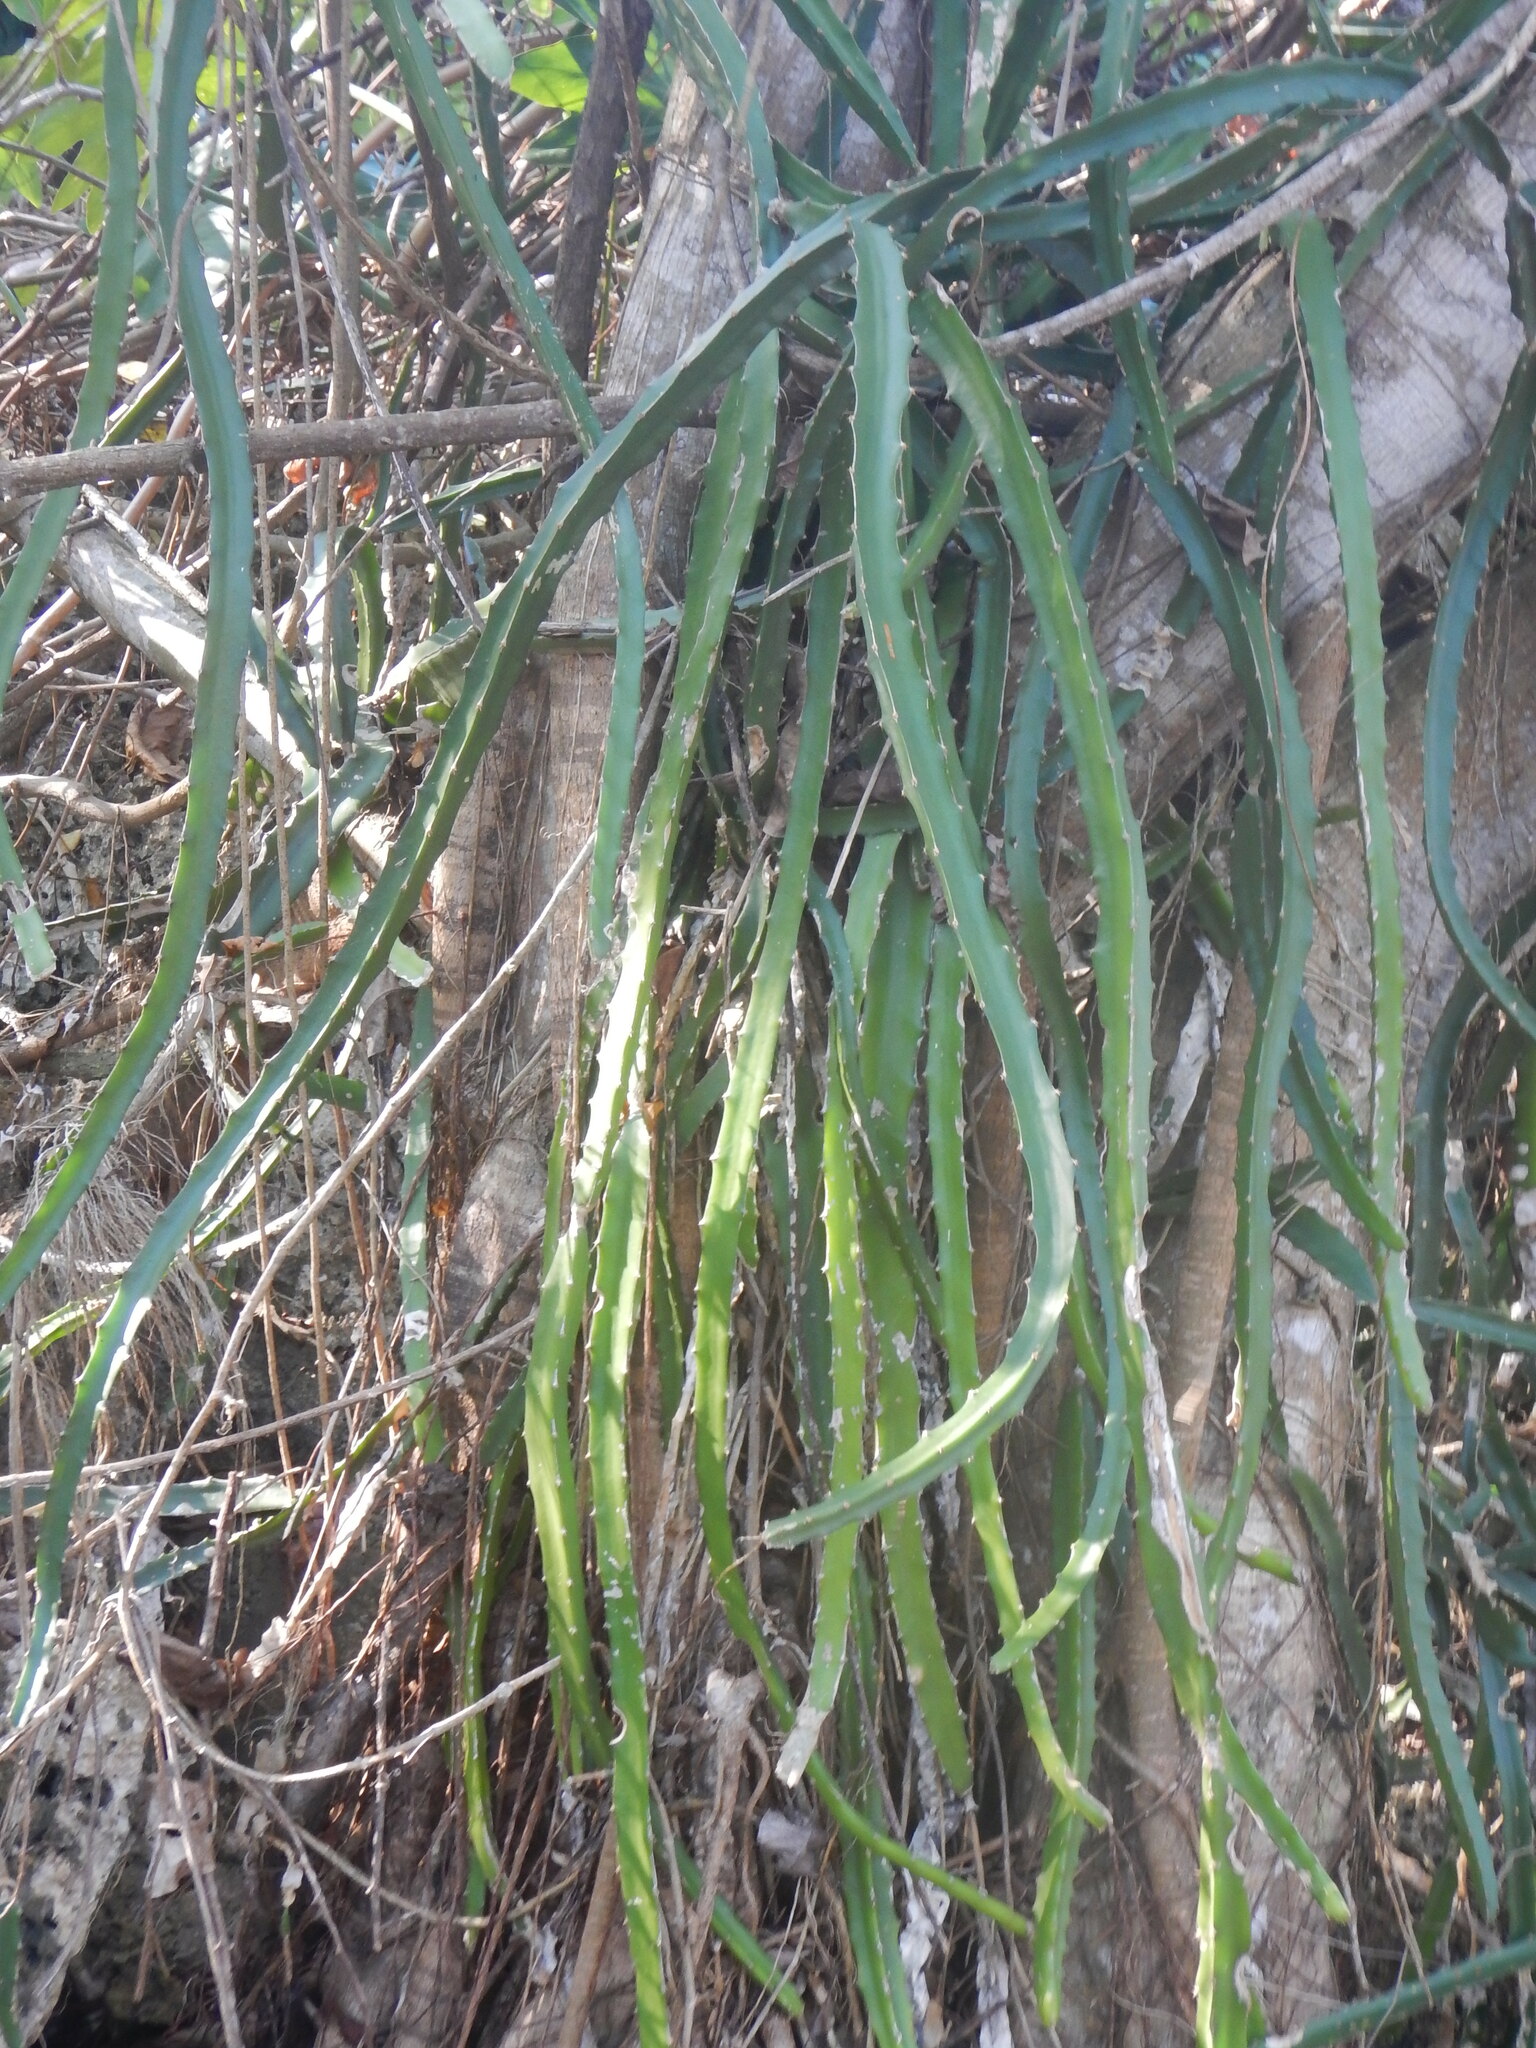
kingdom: Plantae
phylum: Tracheophyta
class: Magnoliopsida
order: Caryophyllales
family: Cactaceae
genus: Selenicereus
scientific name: Selenicereus triangularis
